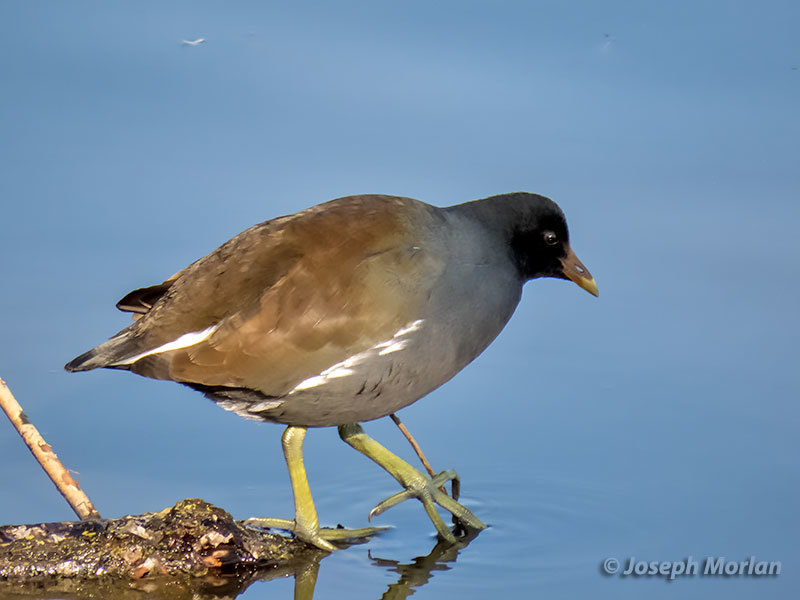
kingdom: Animalia
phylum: Chordata
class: Aves
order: Gruiformes
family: Rallidae
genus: Gallinula
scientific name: Gallinula chloropus
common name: Common moorhen
